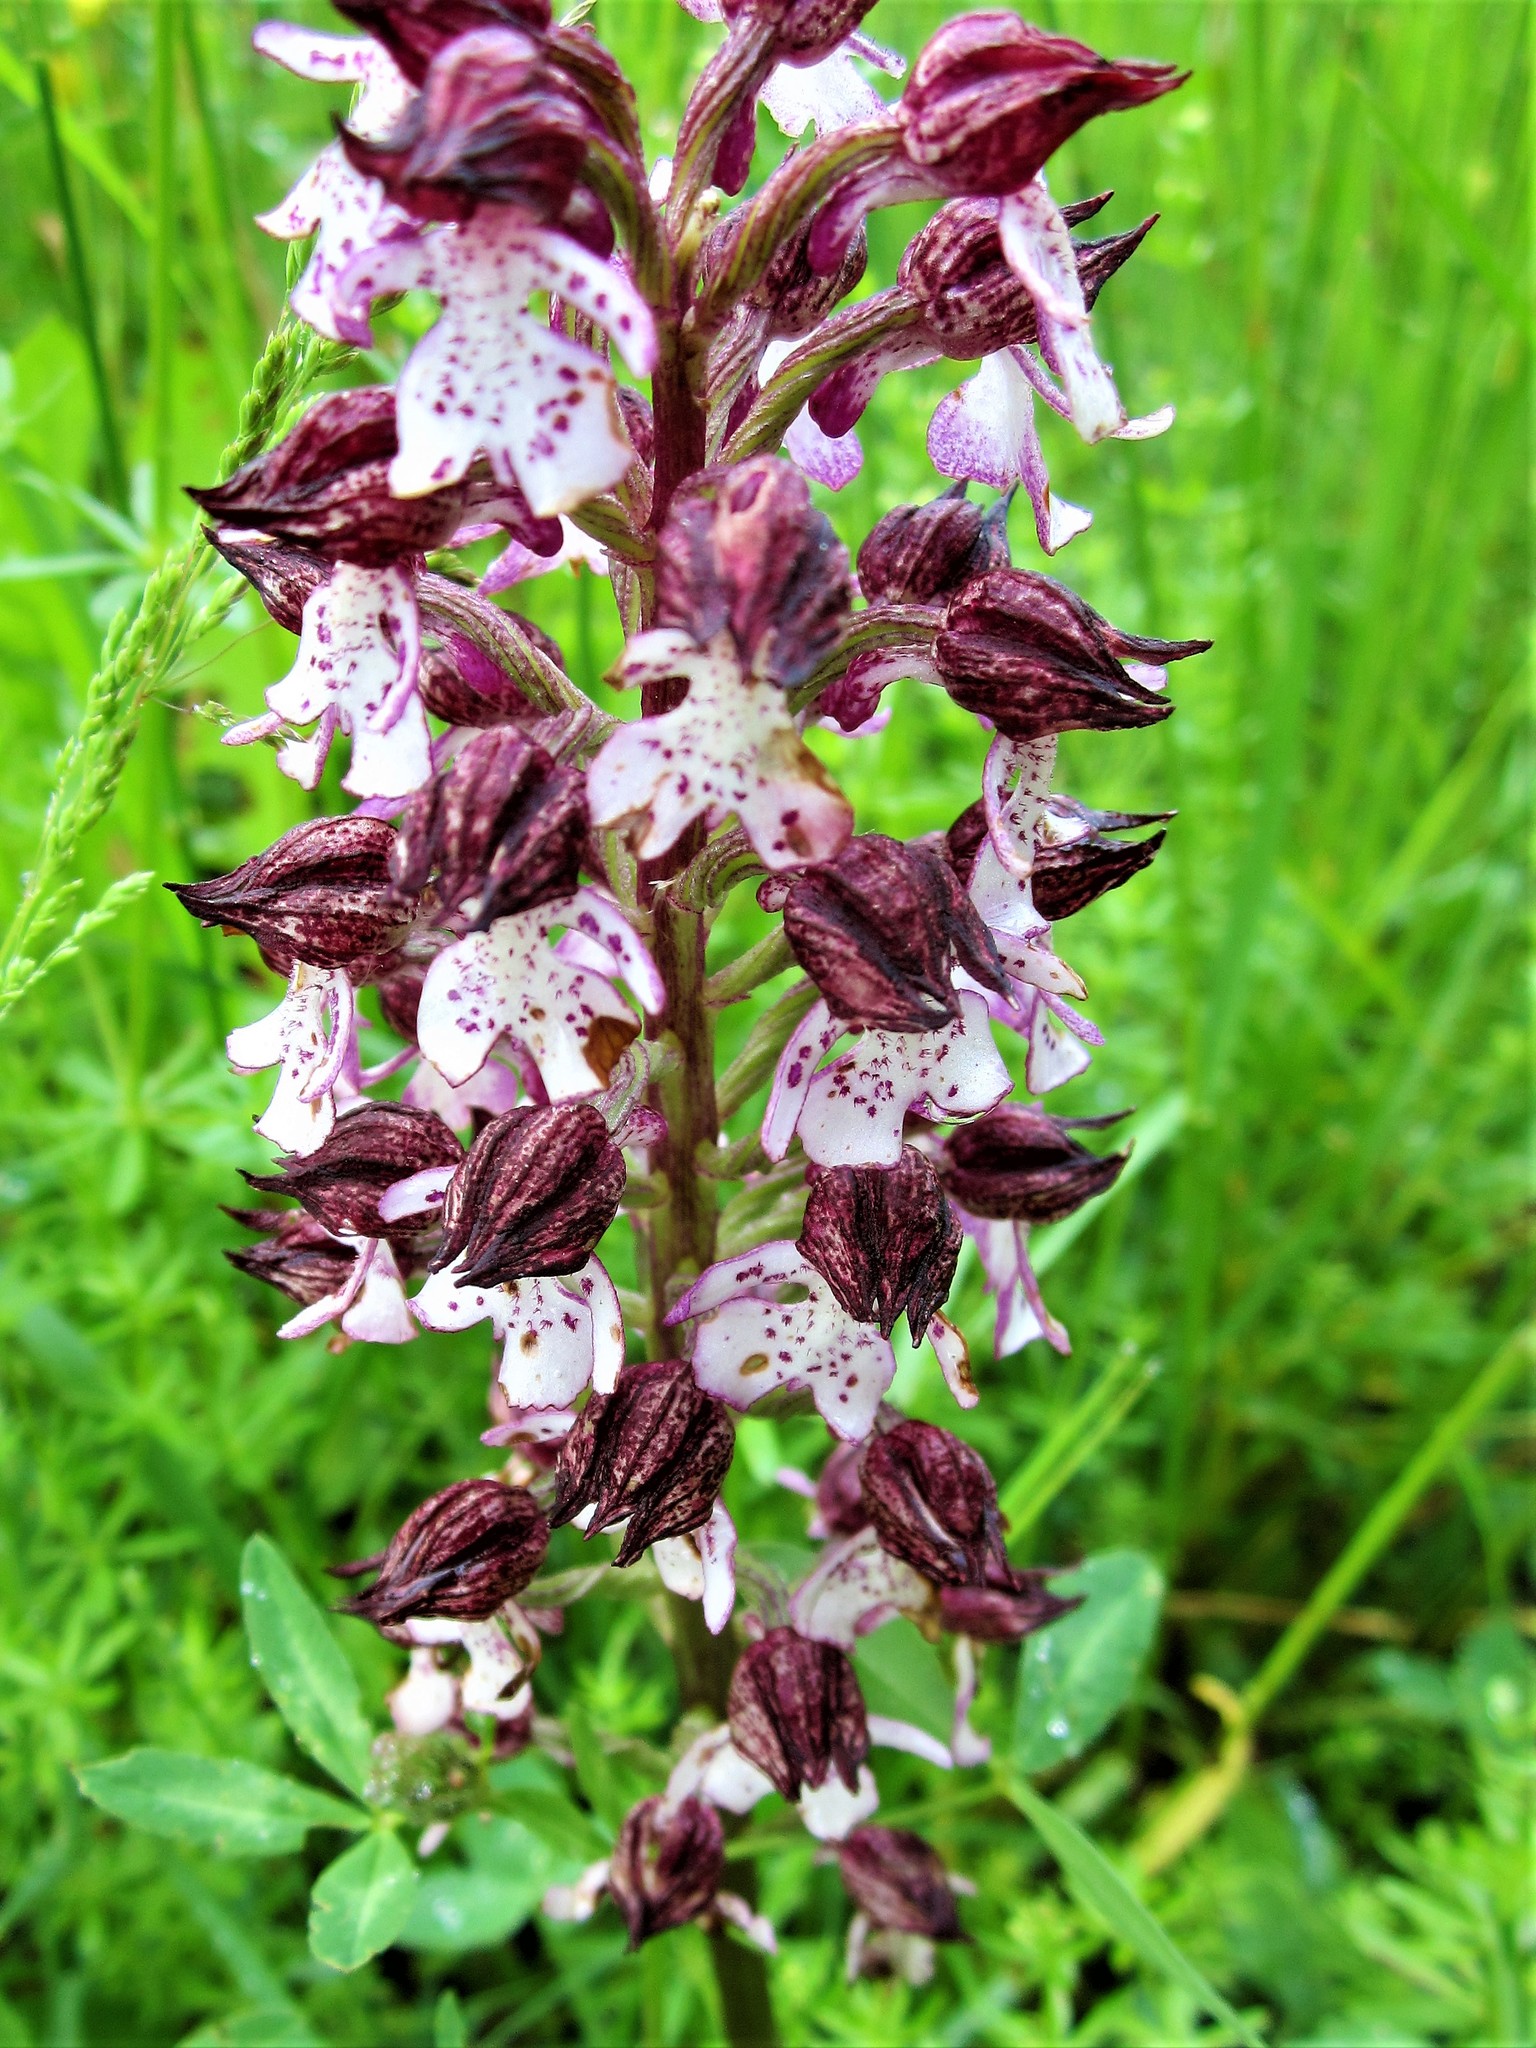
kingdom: Plantae
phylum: Tracheophyta
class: Liliopsida
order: Asparagales
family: Orchidaceae
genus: Orchis
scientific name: Orchis purpurea
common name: Lady orchid
